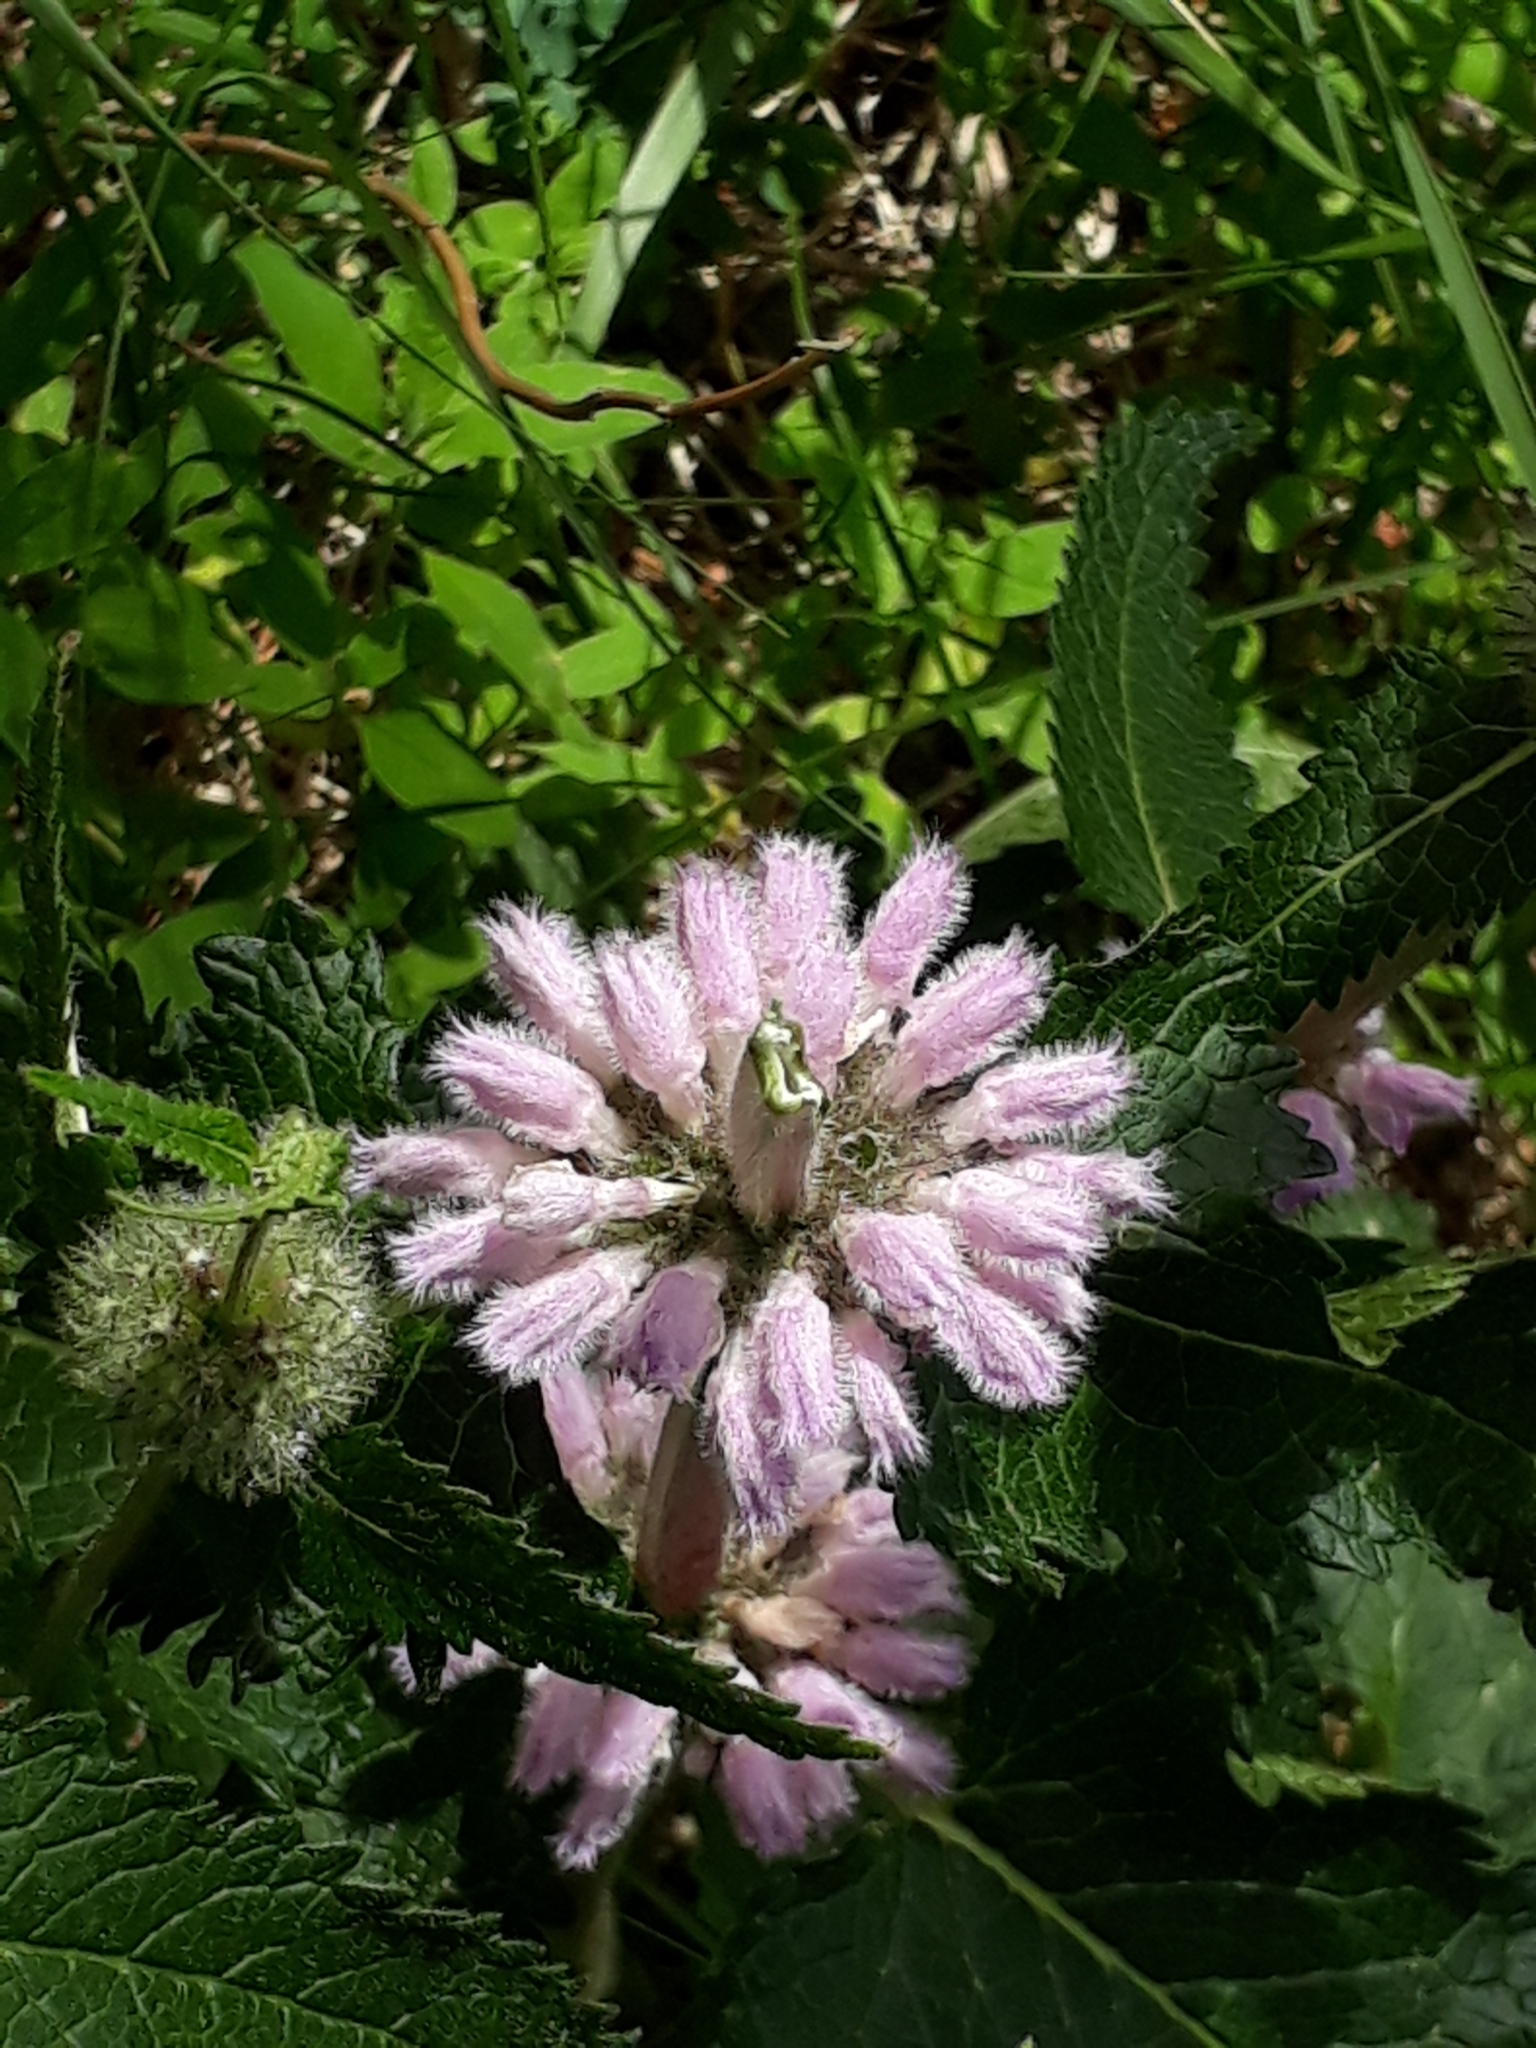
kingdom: Plantae
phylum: Tracheophyta
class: Magnoliopsida
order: Lamiales
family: Lamiaceae
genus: Phlomoides
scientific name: Phlomoides tuberosa
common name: Tuberous jerusalem sage
